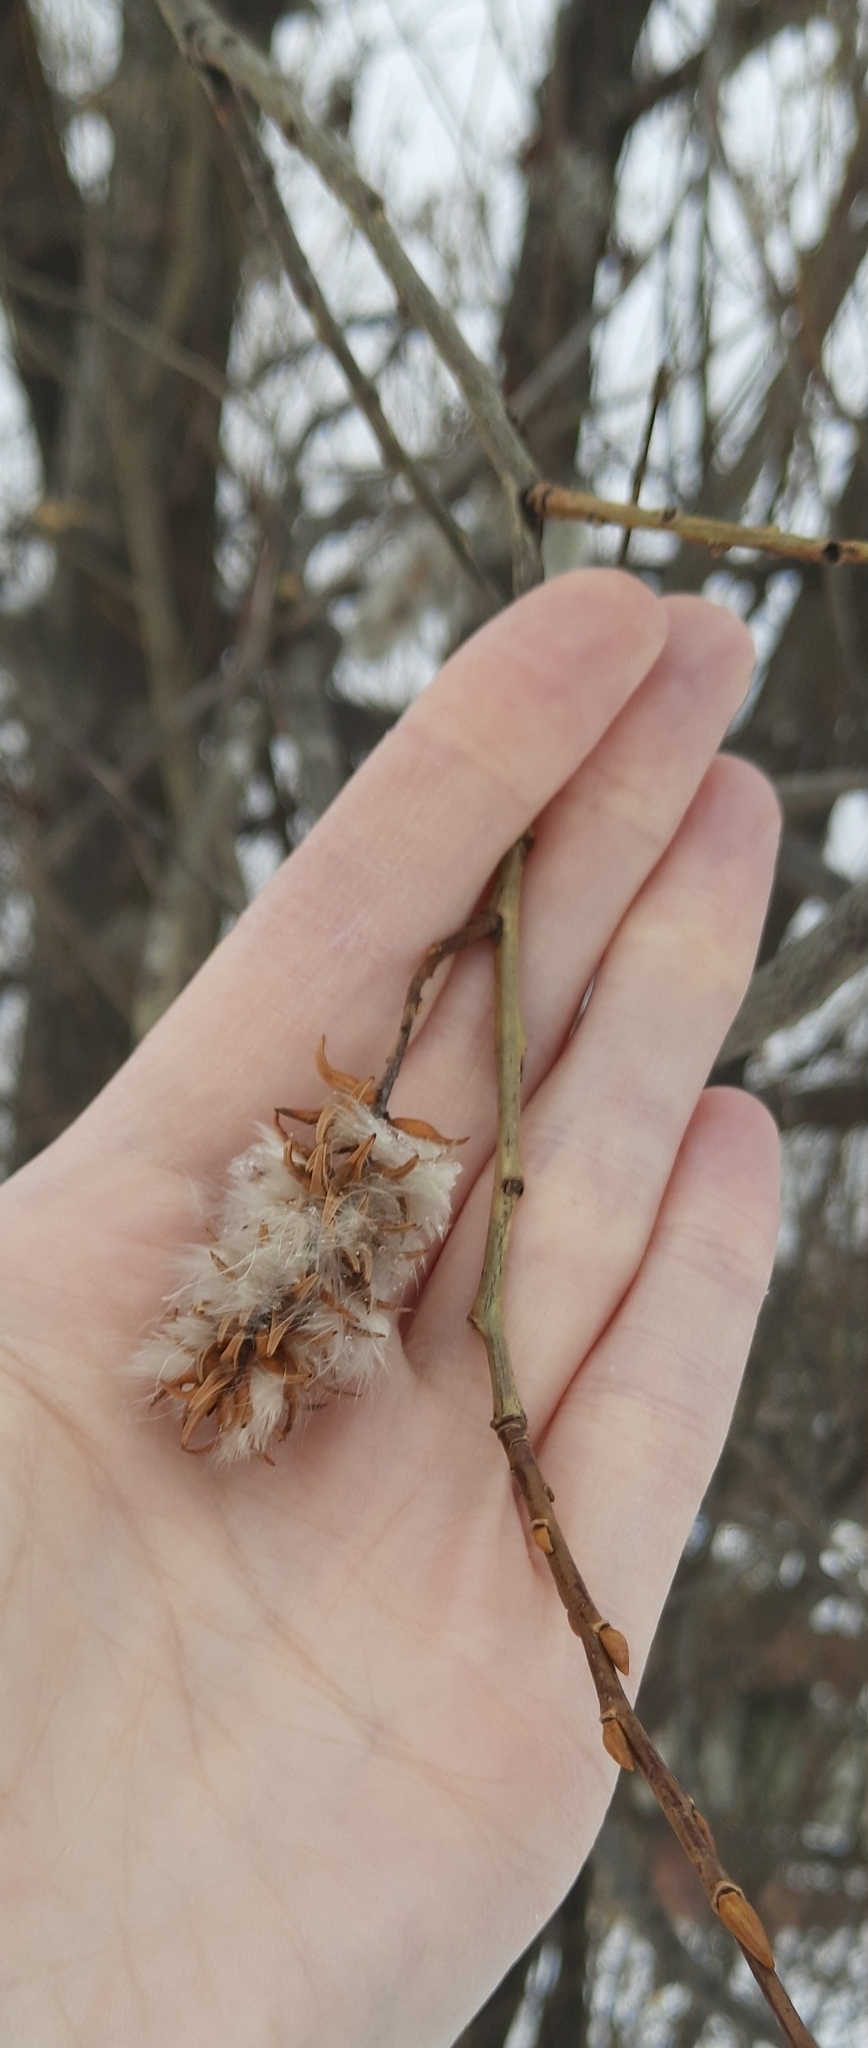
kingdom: Plantae
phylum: Tracheophyta
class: Magnoliopsida
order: Malpighiales
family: Salicaceae
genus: Salix
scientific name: Salix pentandra
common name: Bay willow
